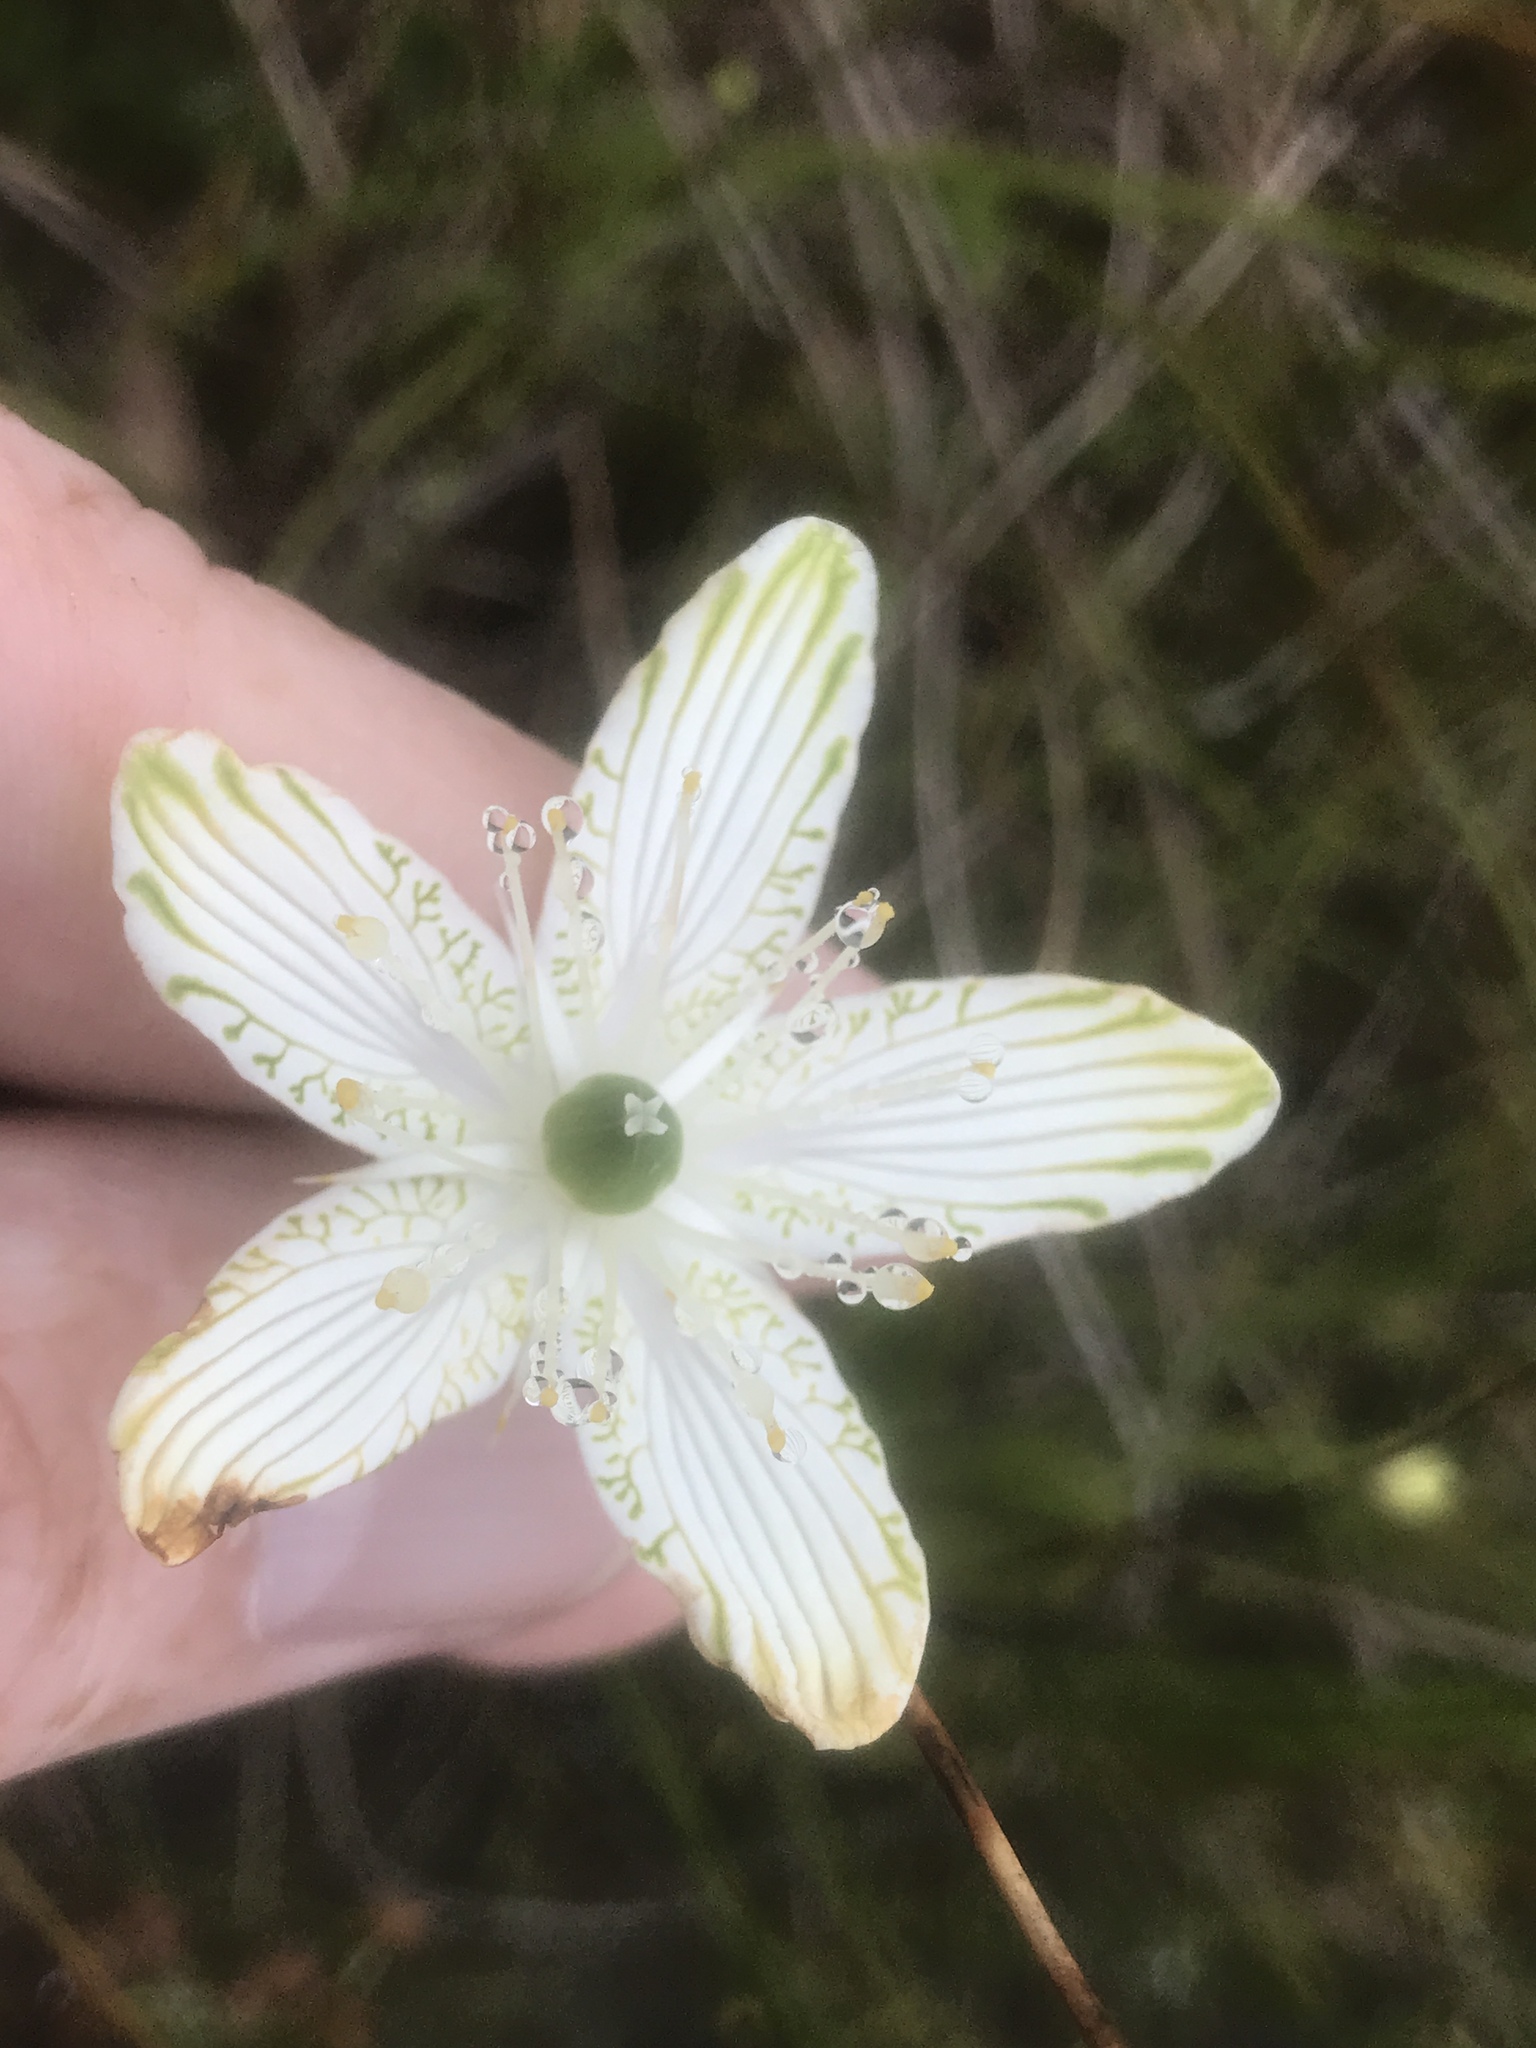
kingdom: Plantae
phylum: Tracheophyta
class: Magnoliopsida
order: Celastrales
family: Parnassiaceae
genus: Parnassia
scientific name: Parnassia grandifolia
